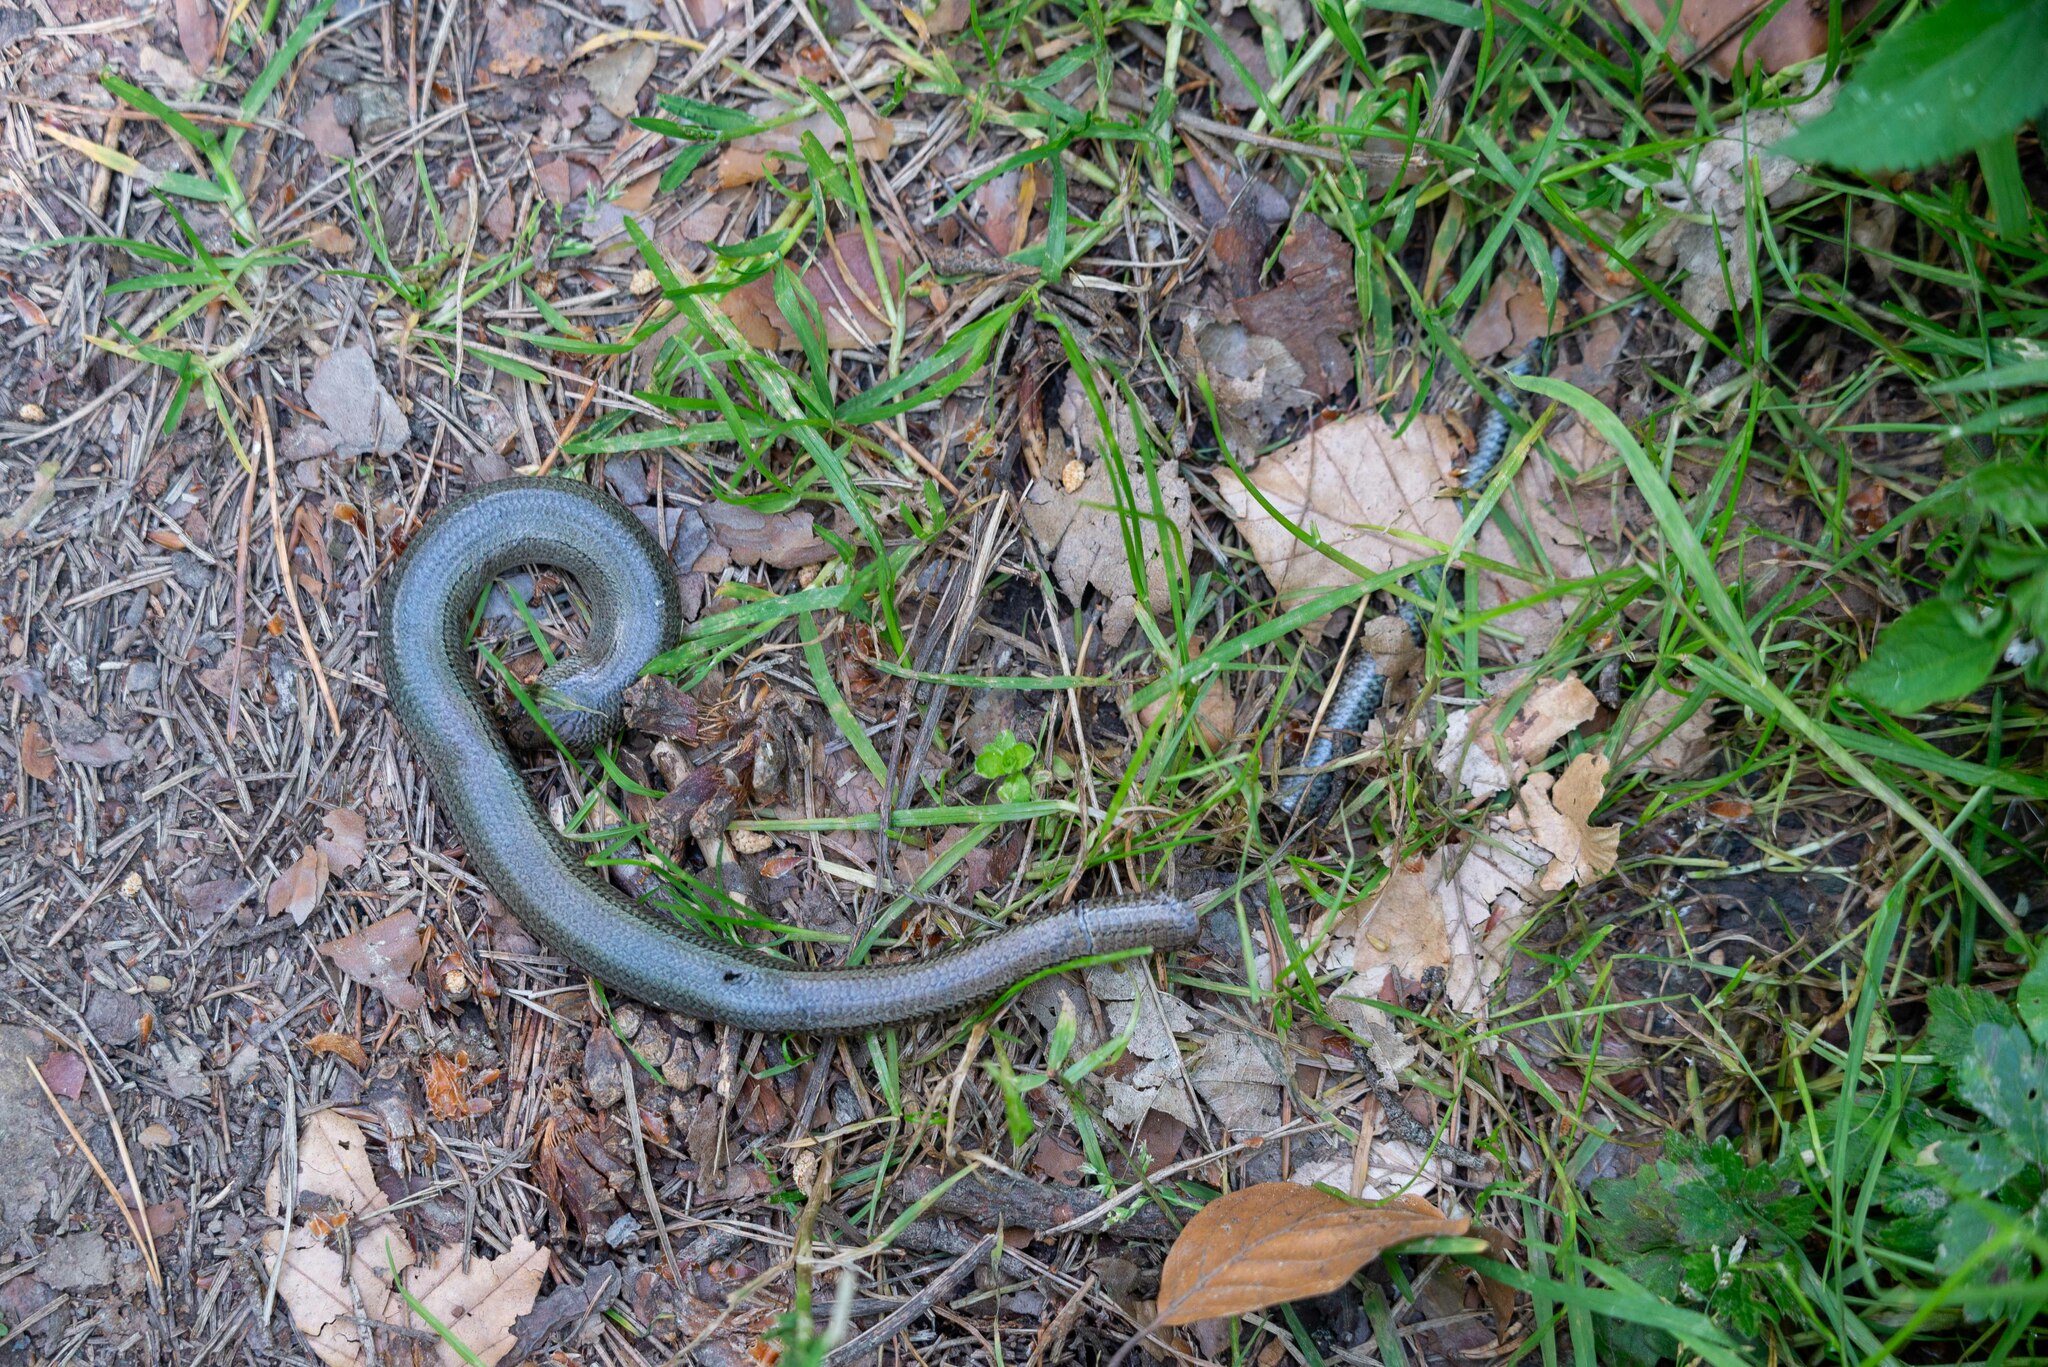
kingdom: Animalia
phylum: Chordata
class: Squamata
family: Anguidae
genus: Anguis
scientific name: Anguis fragilis
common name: Slow worm
